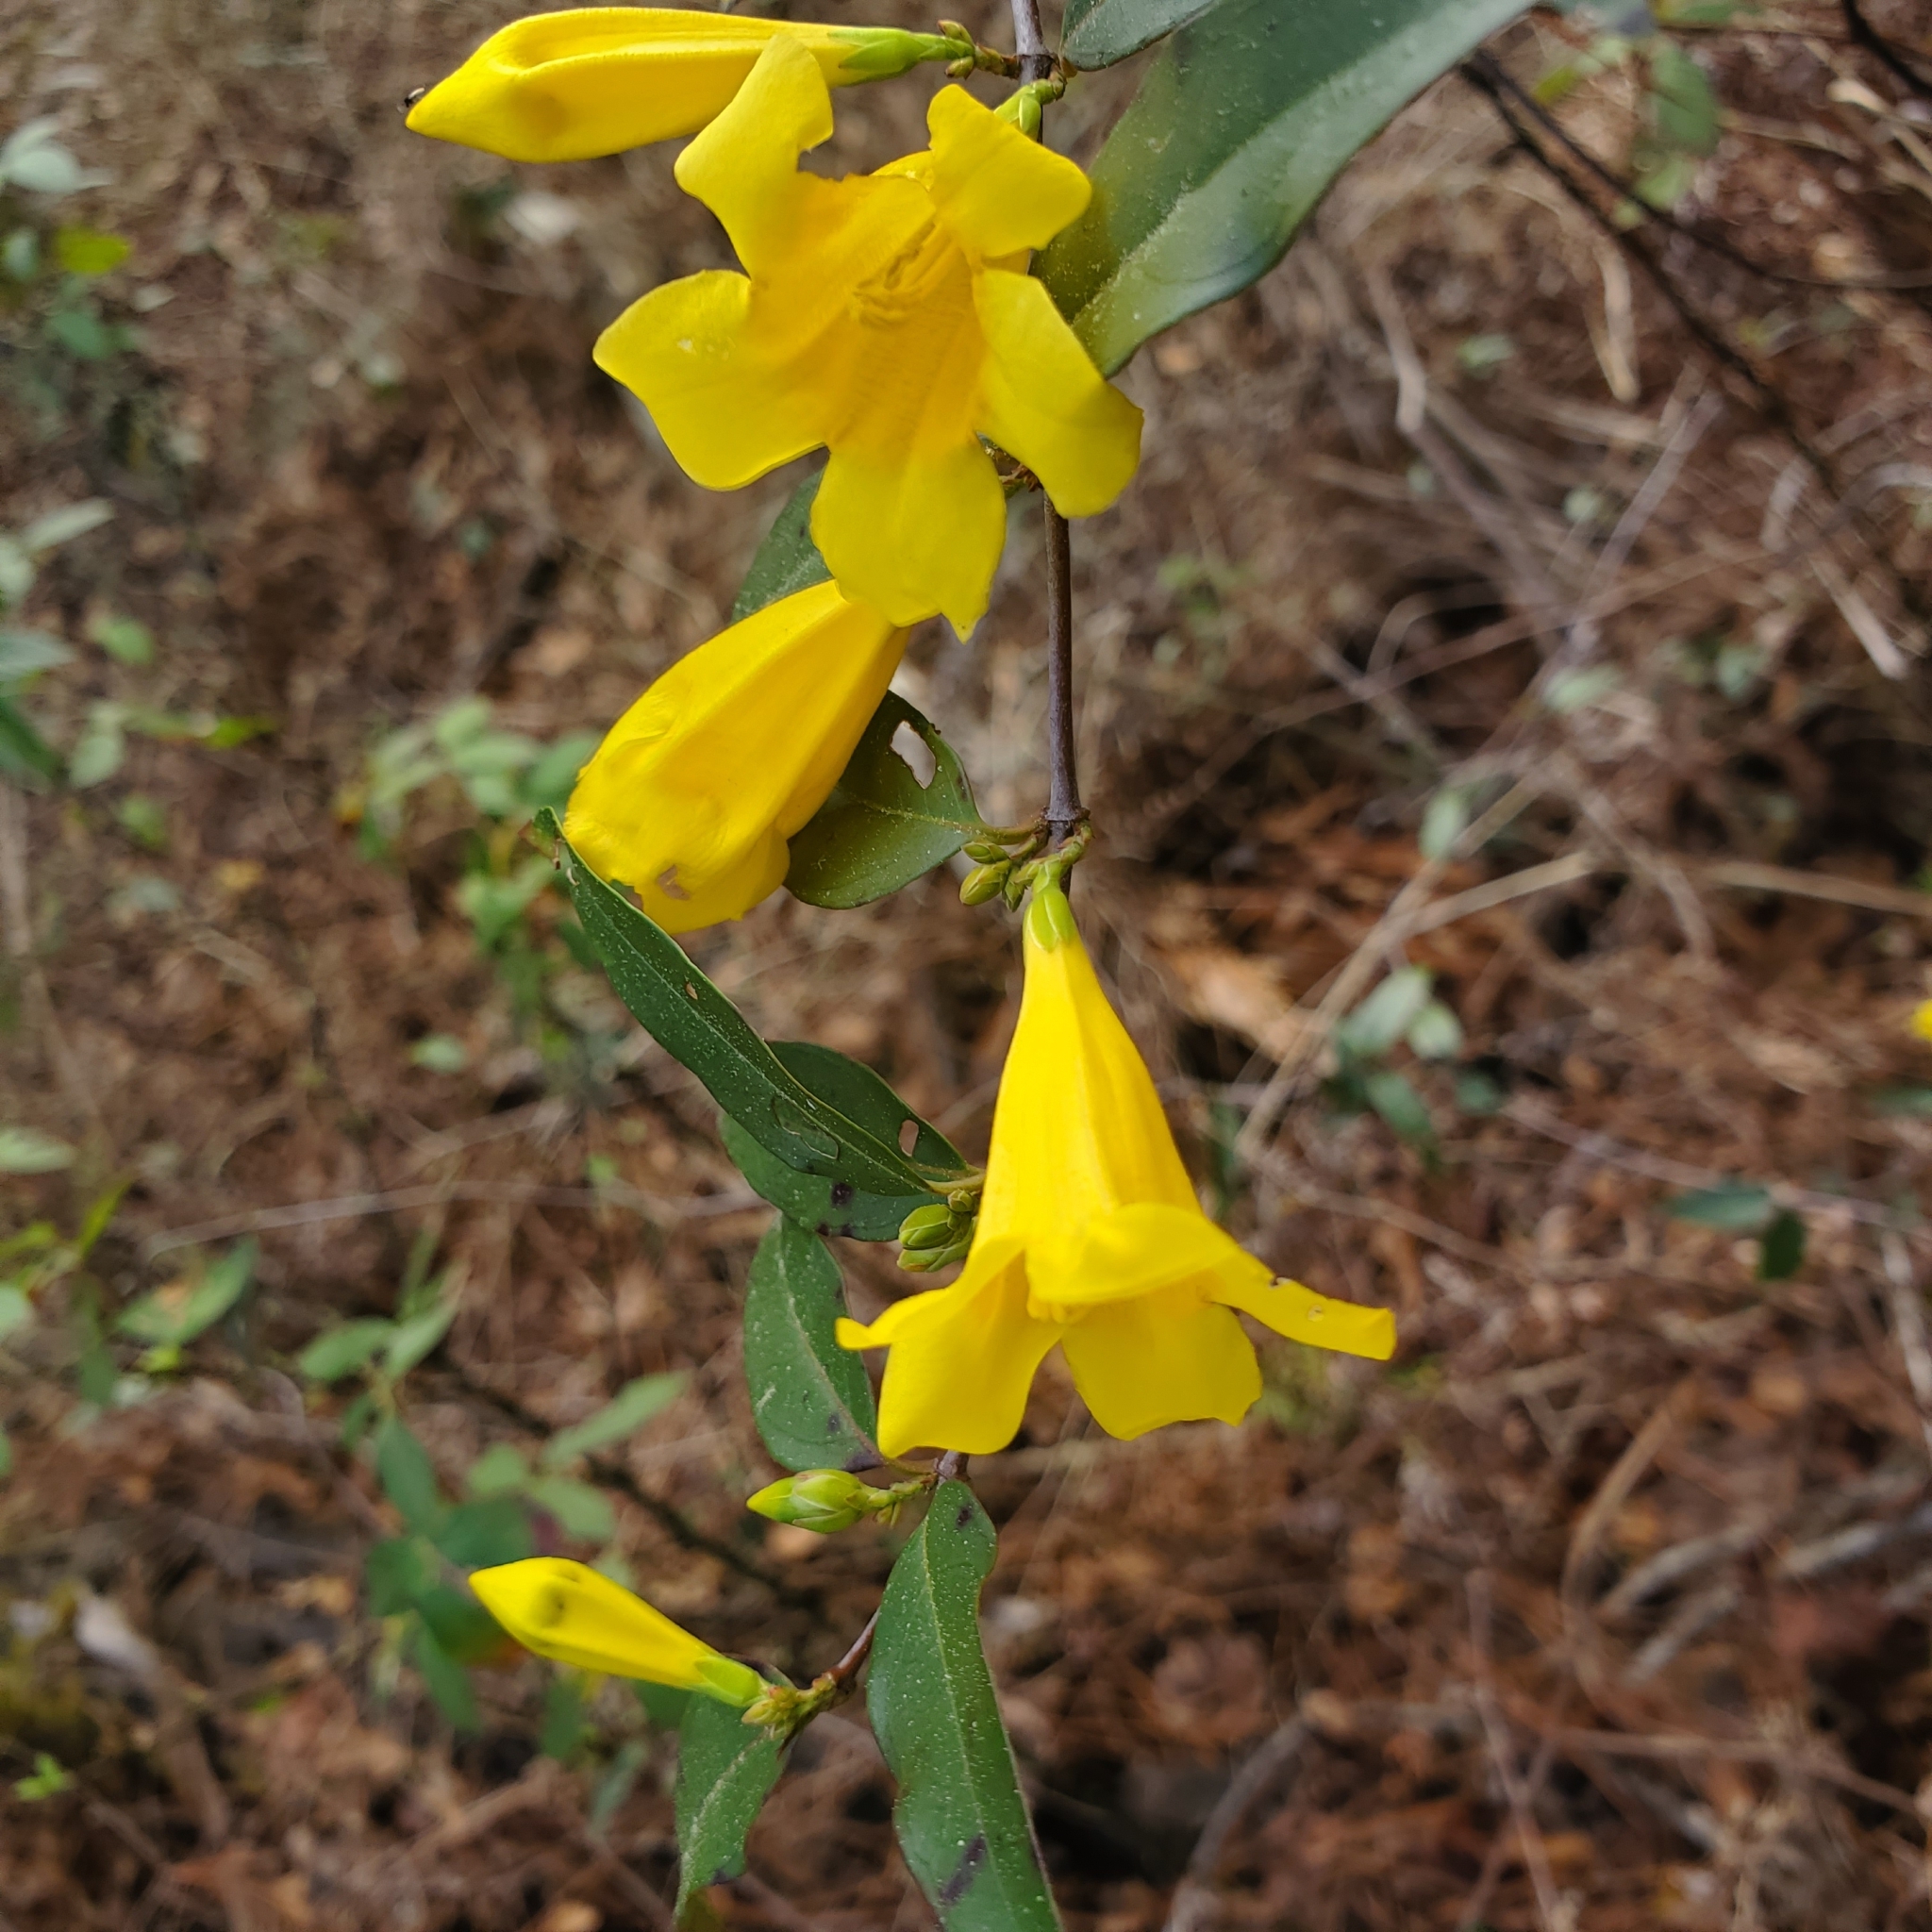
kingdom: Plantae
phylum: Tracheophyta
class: Magnoliopsida
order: Gentianales
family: Gelsemiaceae
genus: Gelsemium
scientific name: Gelsemium sempervirens
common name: Carolina-jasmine
